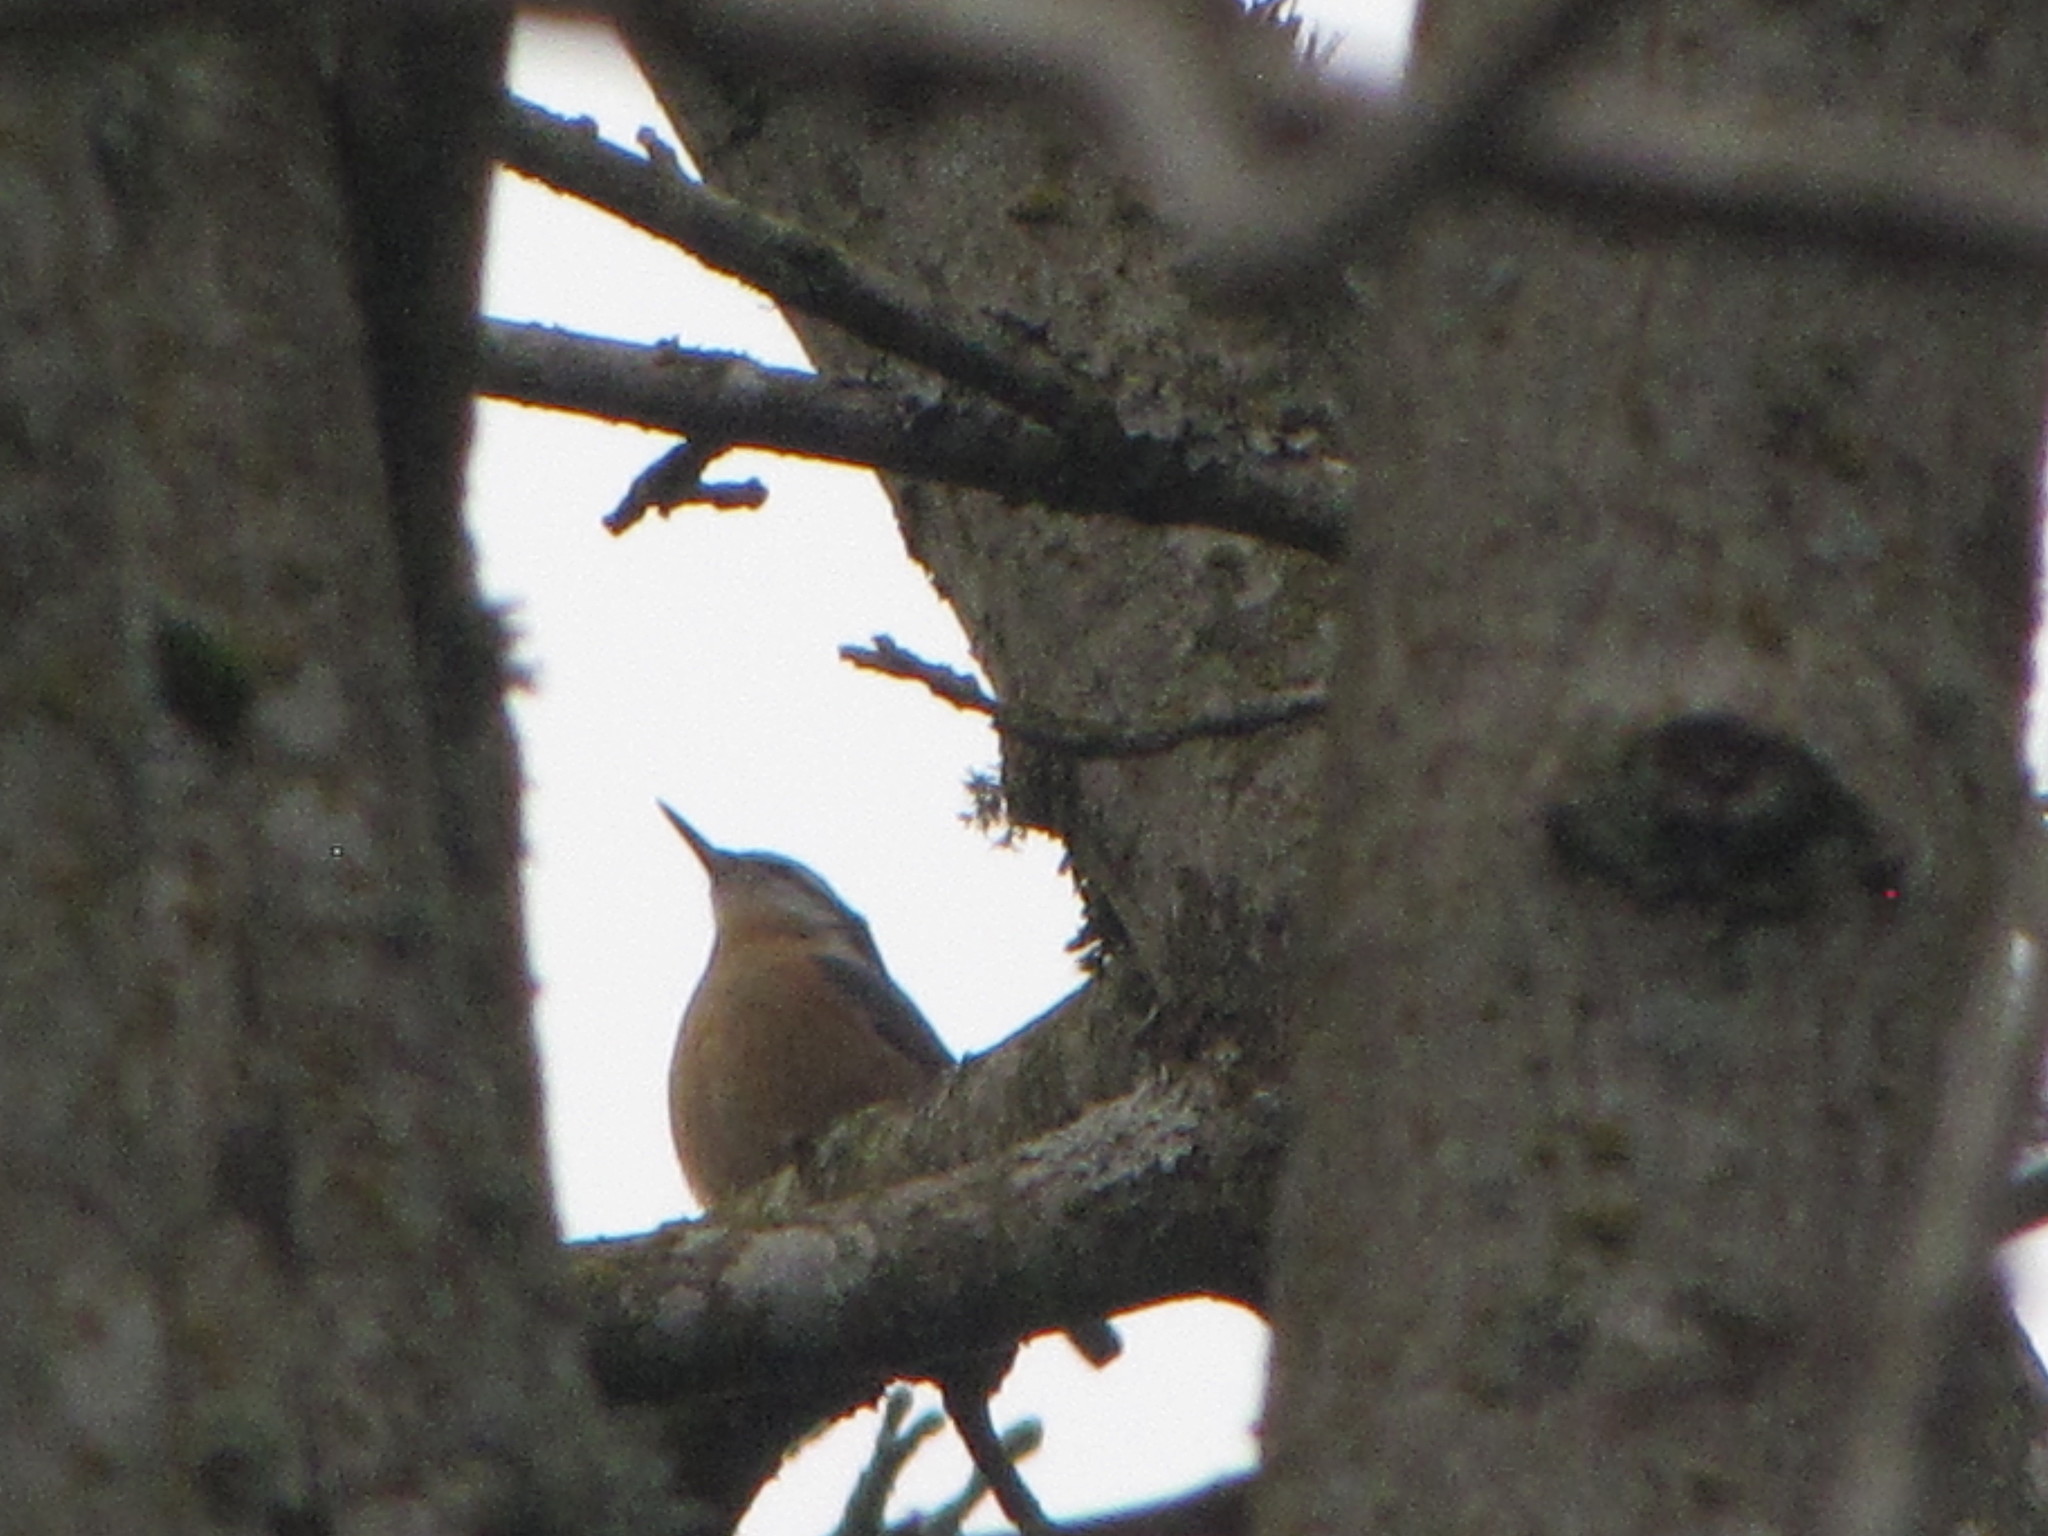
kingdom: Animalia
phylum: Chordata
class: Aves
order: Passeriformes
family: Sittidae
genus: Sitta
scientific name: Sitta canadensis
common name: Red-breasted nuthatch
